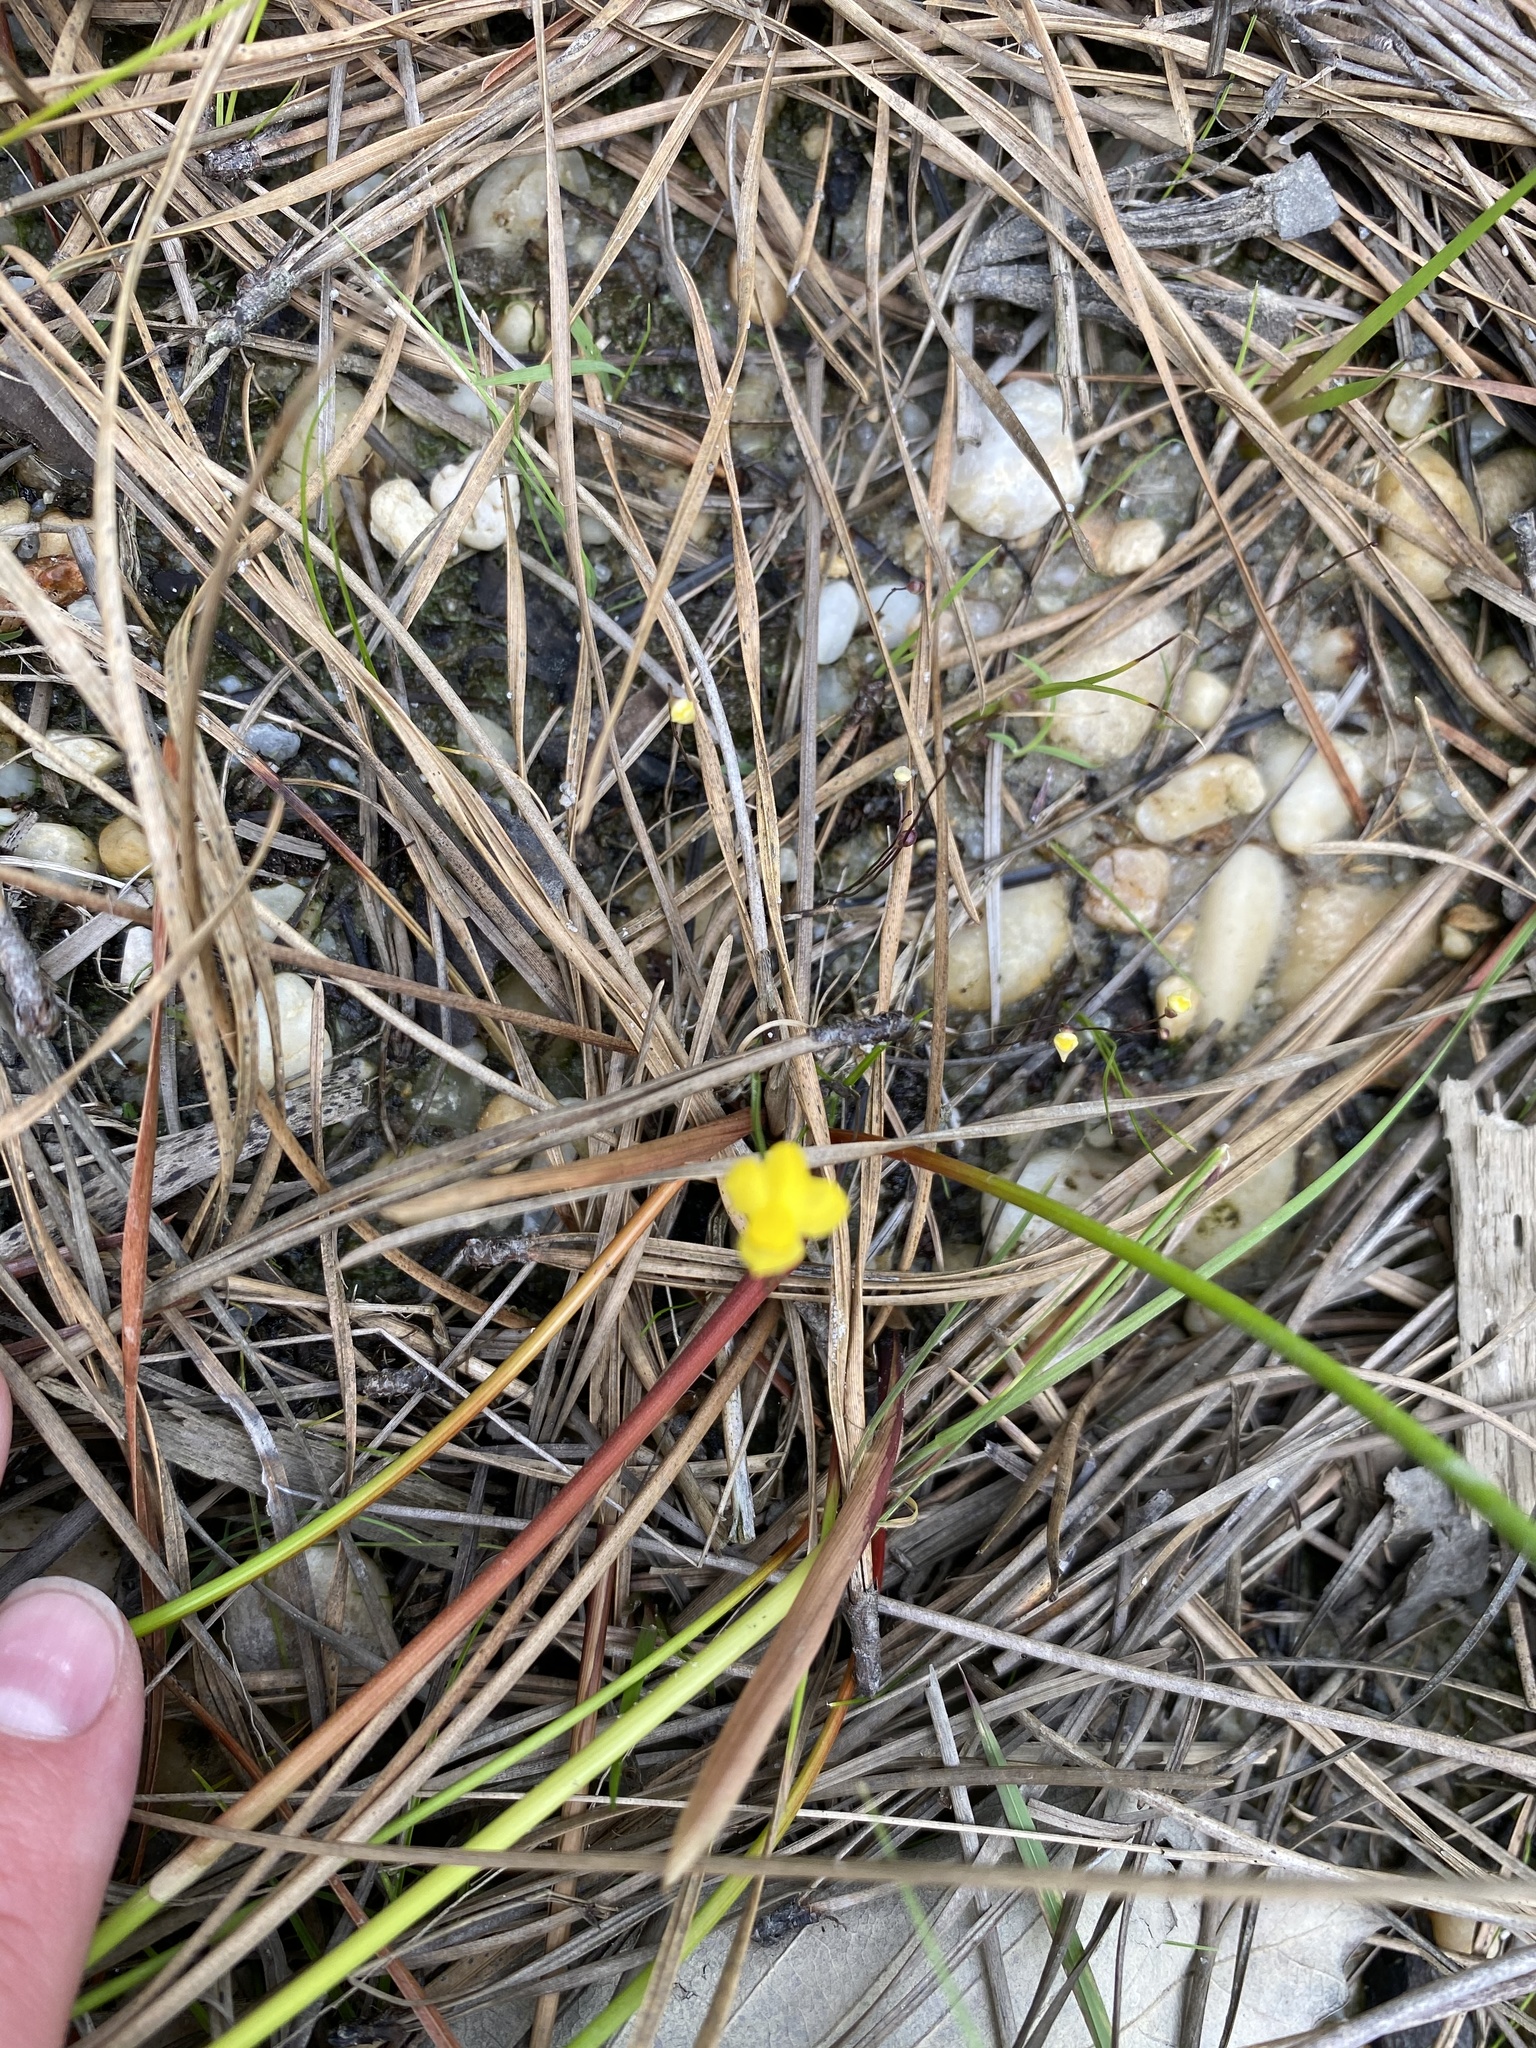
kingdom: Plantae
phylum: Tracheophyta
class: Magnoliopsida
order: Lamiales
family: Lentibulariaceae
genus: Utricularia
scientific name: Utricularia subulata
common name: Tiny bladderwort
